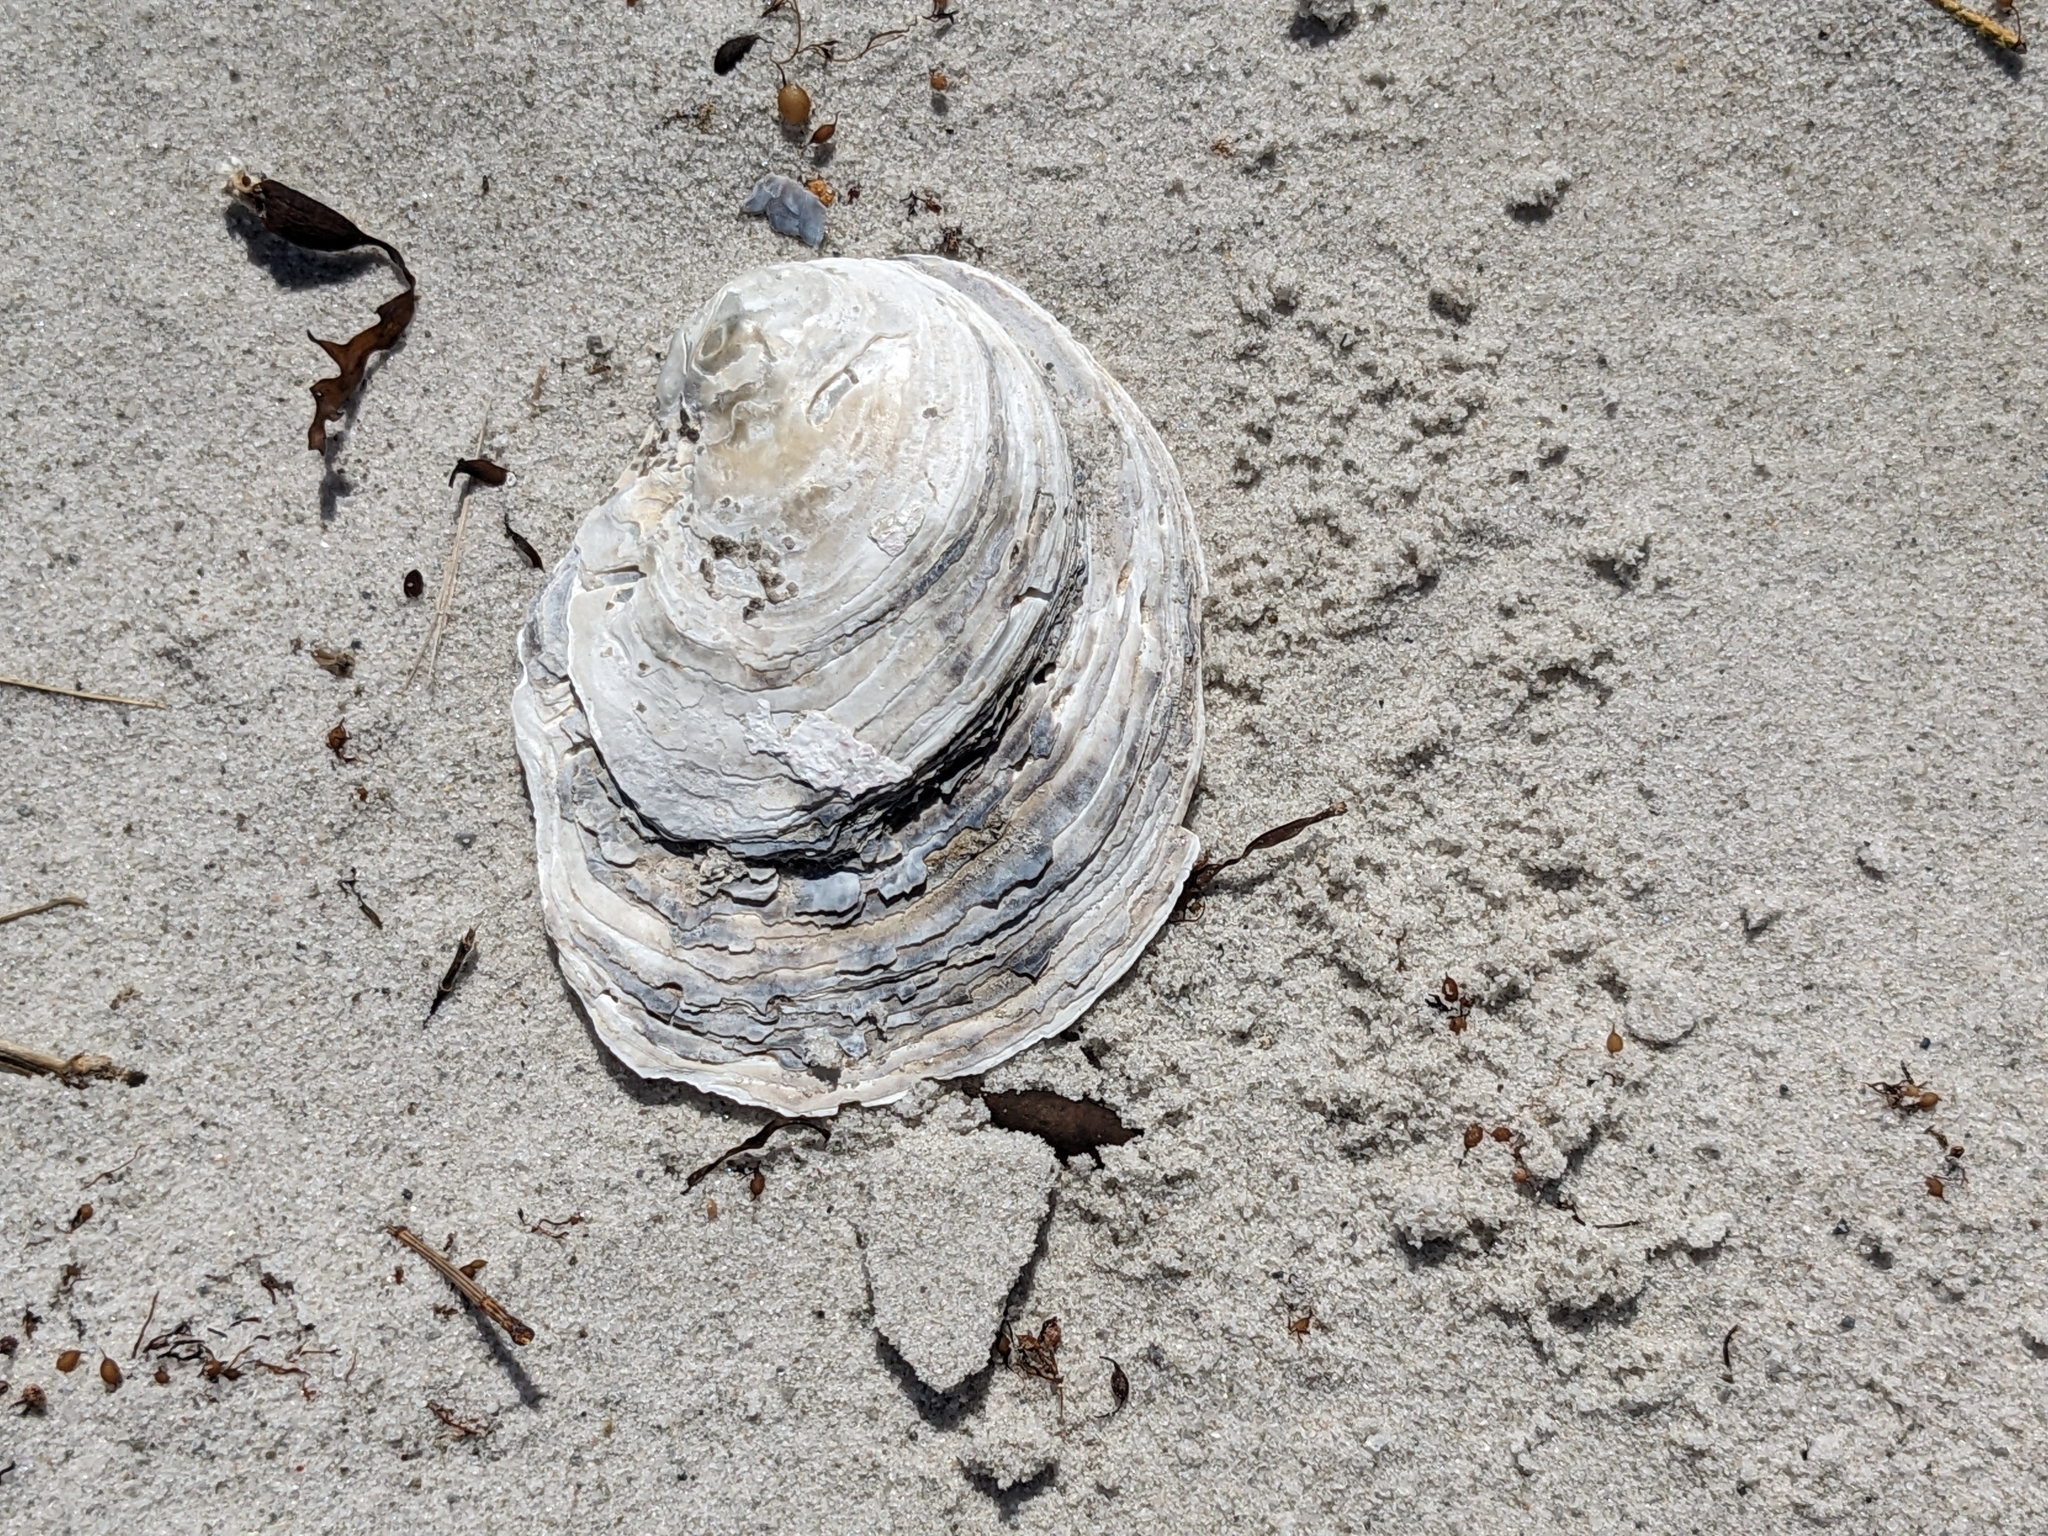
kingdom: Animalia
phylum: Mollusca
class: Bivalvia
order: Ostreida
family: Ostreidae
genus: Ostrea
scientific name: Ostrea angasi
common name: Angasi oyster
